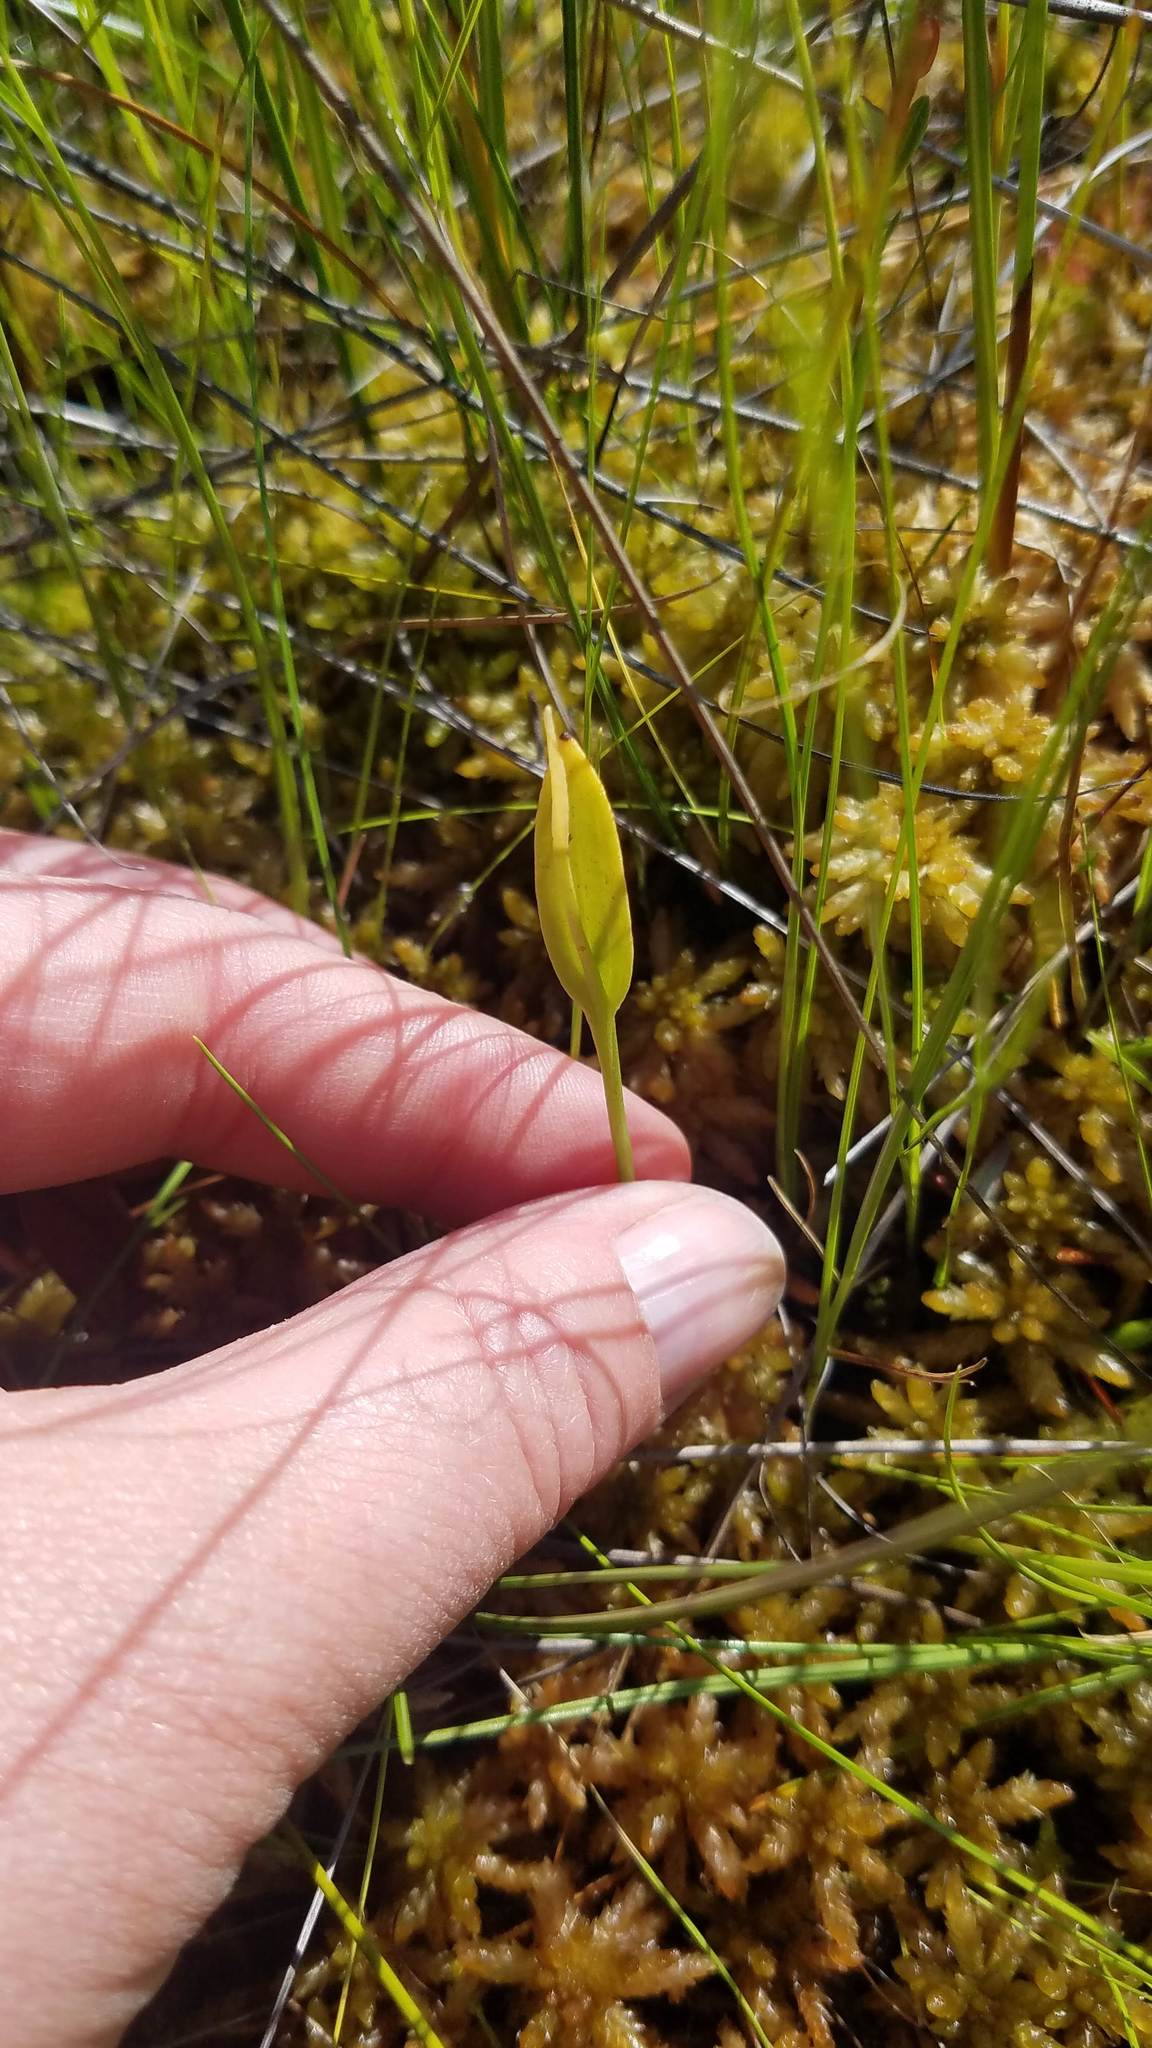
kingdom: Plantae
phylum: Tracheophyta
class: Polypodiopsida
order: Ophioglossales
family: Ophioglossaceae
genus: Ophioglossum
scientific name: Ophioglossum pusillum
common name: Northern adder's-tongue
